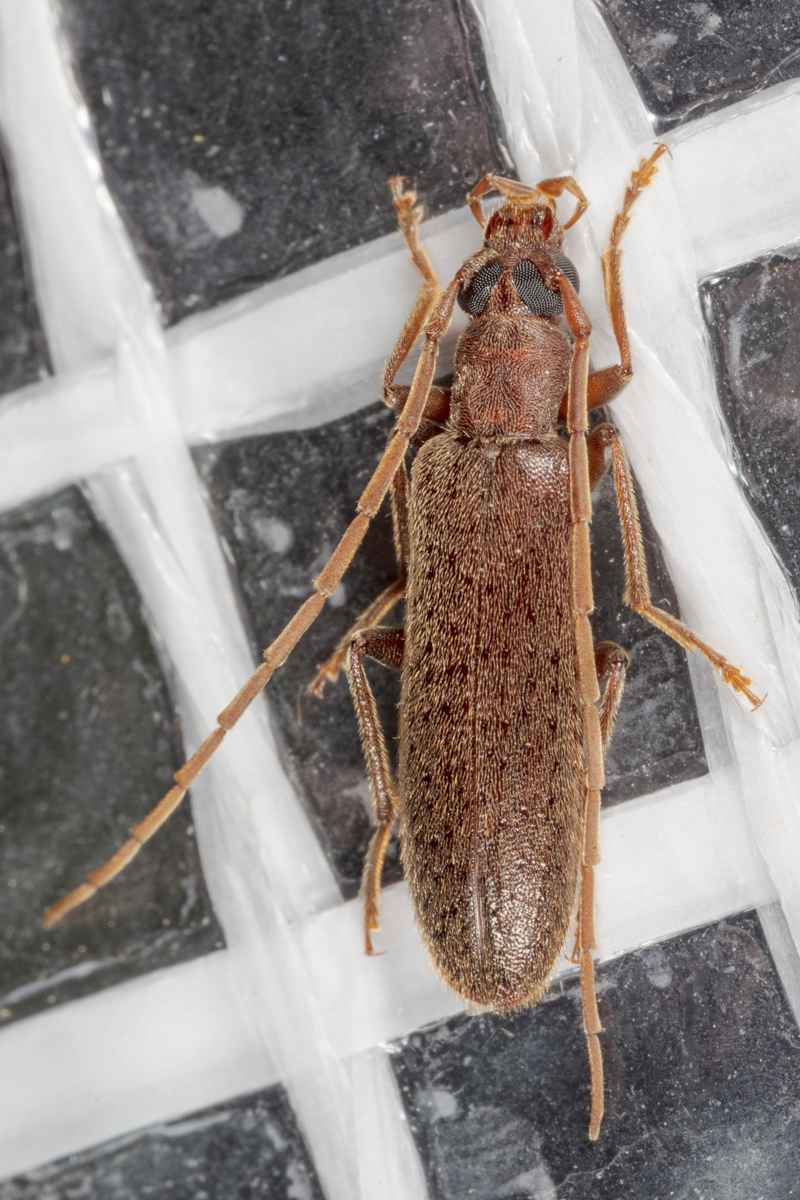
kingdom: Animalia
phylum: Arthropoda
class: Insecta
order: Coleoptera
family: Oedemeridae
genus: Sparedrus
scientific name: Sparedrus aspersus
